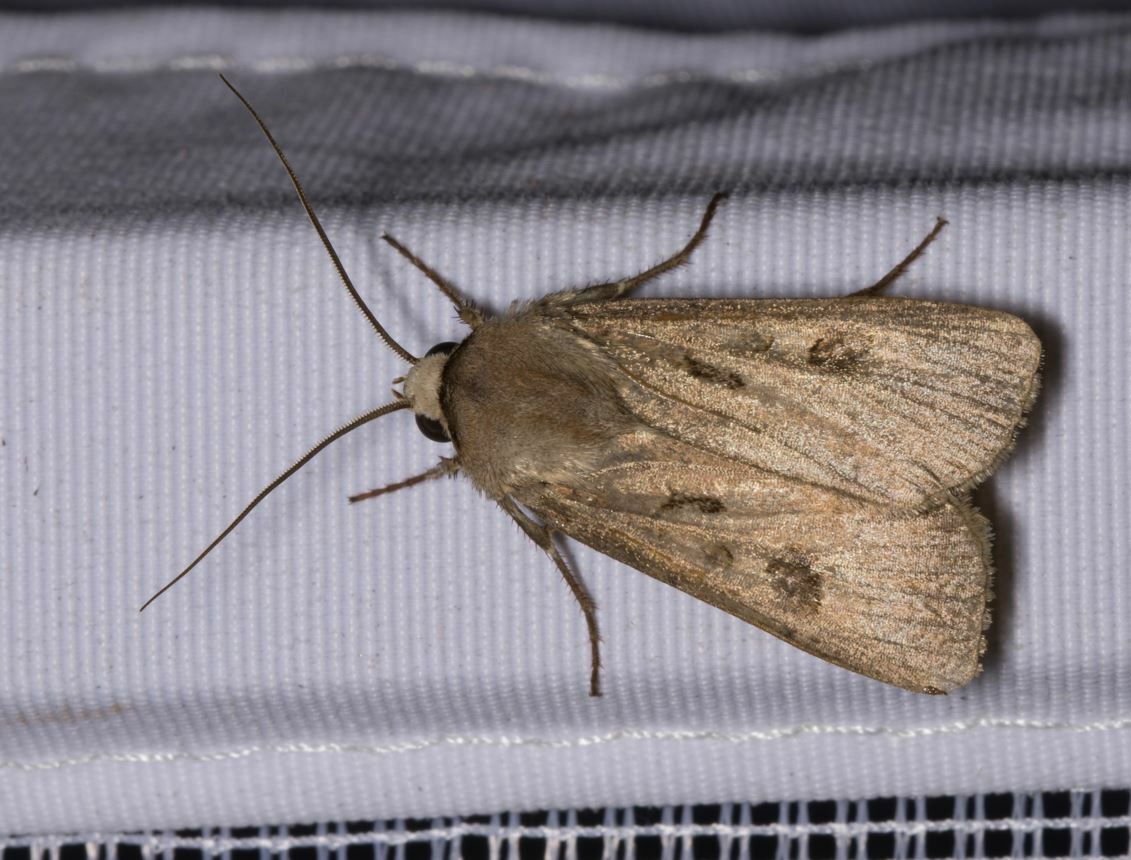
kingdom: Animalia
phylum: Arthropoda
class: Insecta
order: Lepidoptera
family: Noctuidae
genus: Agrotis
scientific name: Agrotis exclamationis
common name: Heart and dart
